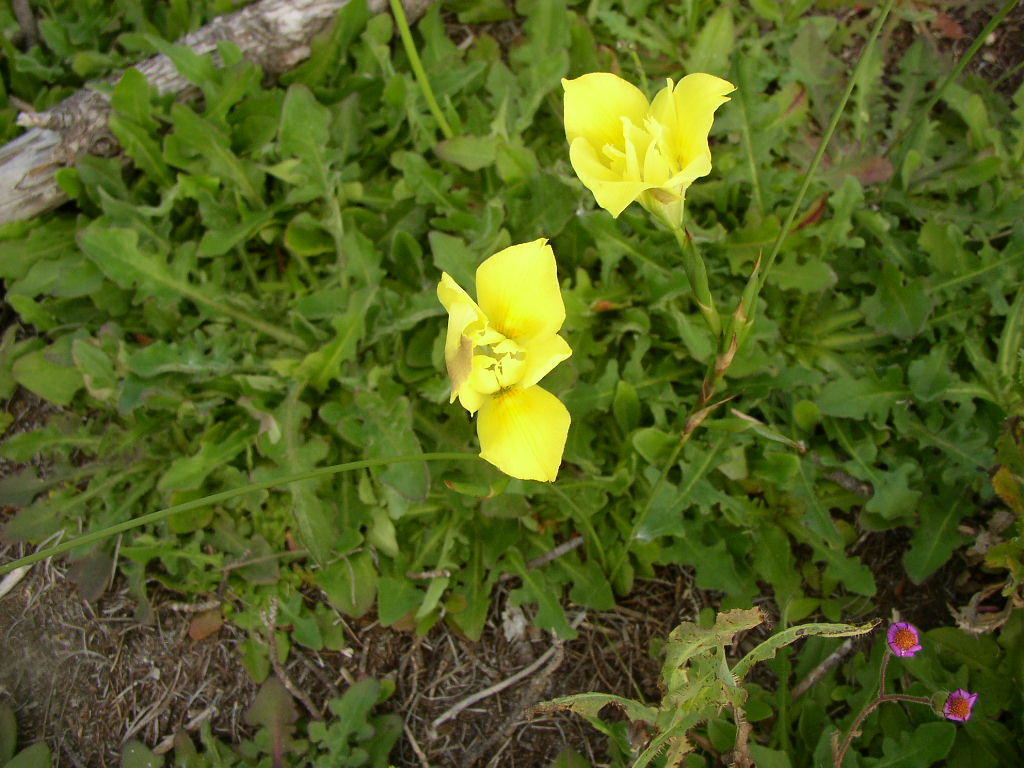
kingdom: Plantae
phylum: Tracheophyta
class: Liliopsida
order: Asparagales
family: Iridaceae
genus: Moraea
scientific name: Moraea fugax
